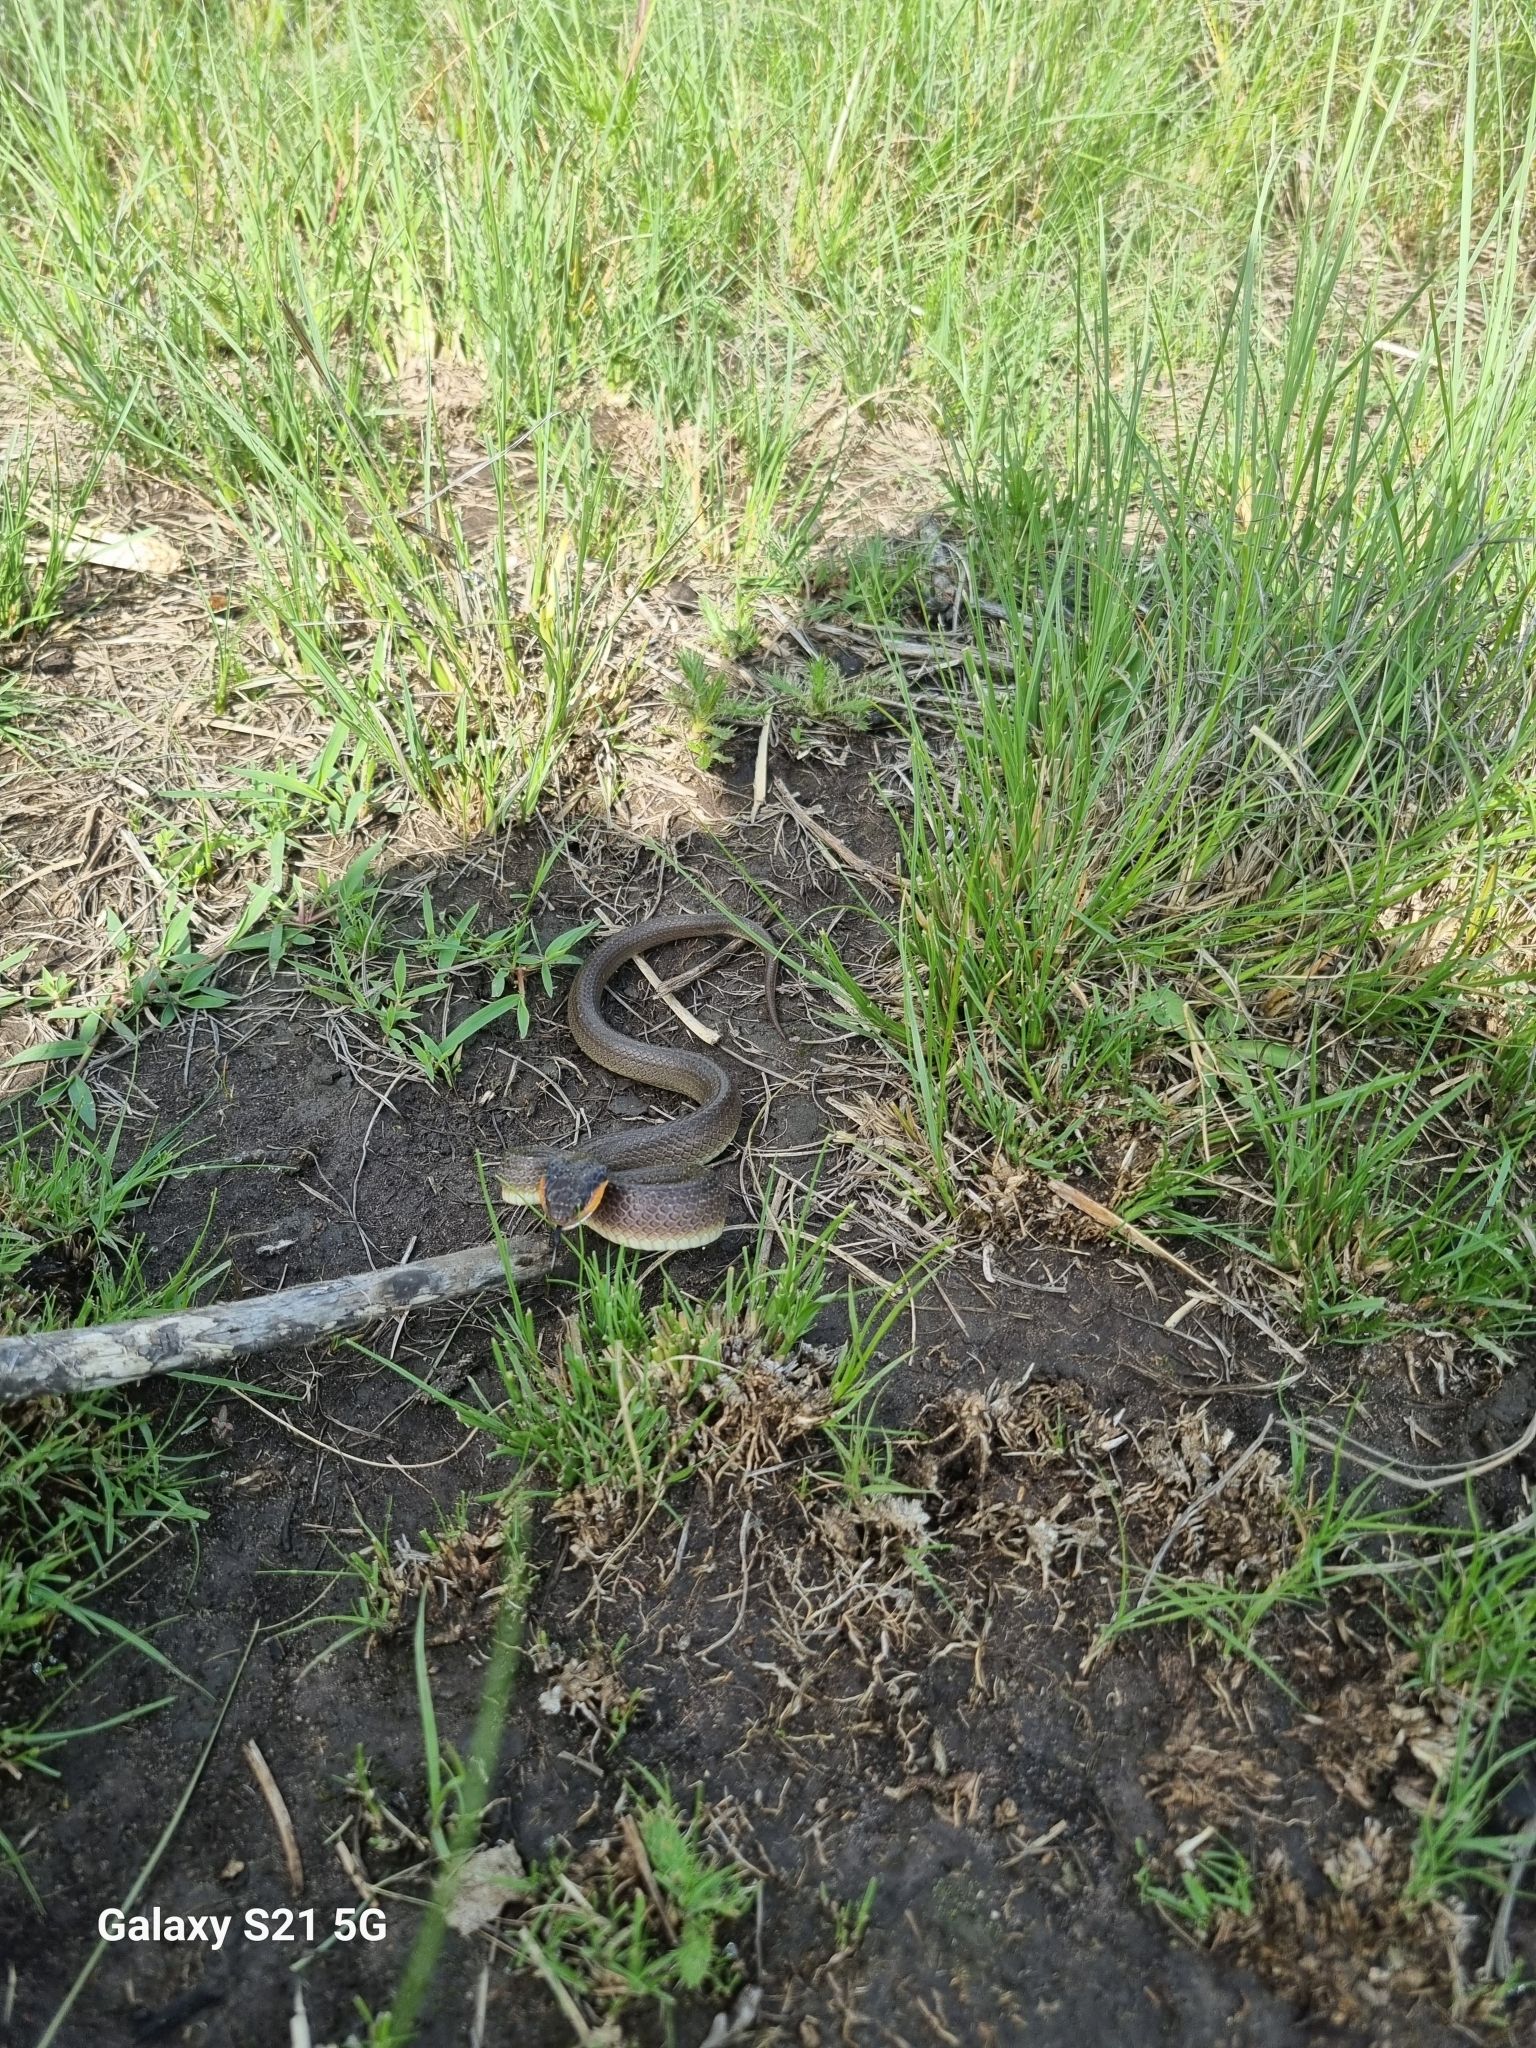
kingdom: Animalia
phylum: Chordata
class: Squamata
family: Colubridae
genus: Crotaphopeltis
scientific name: Crotaphopeltis hotamboeia
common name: Red-lipped snake
